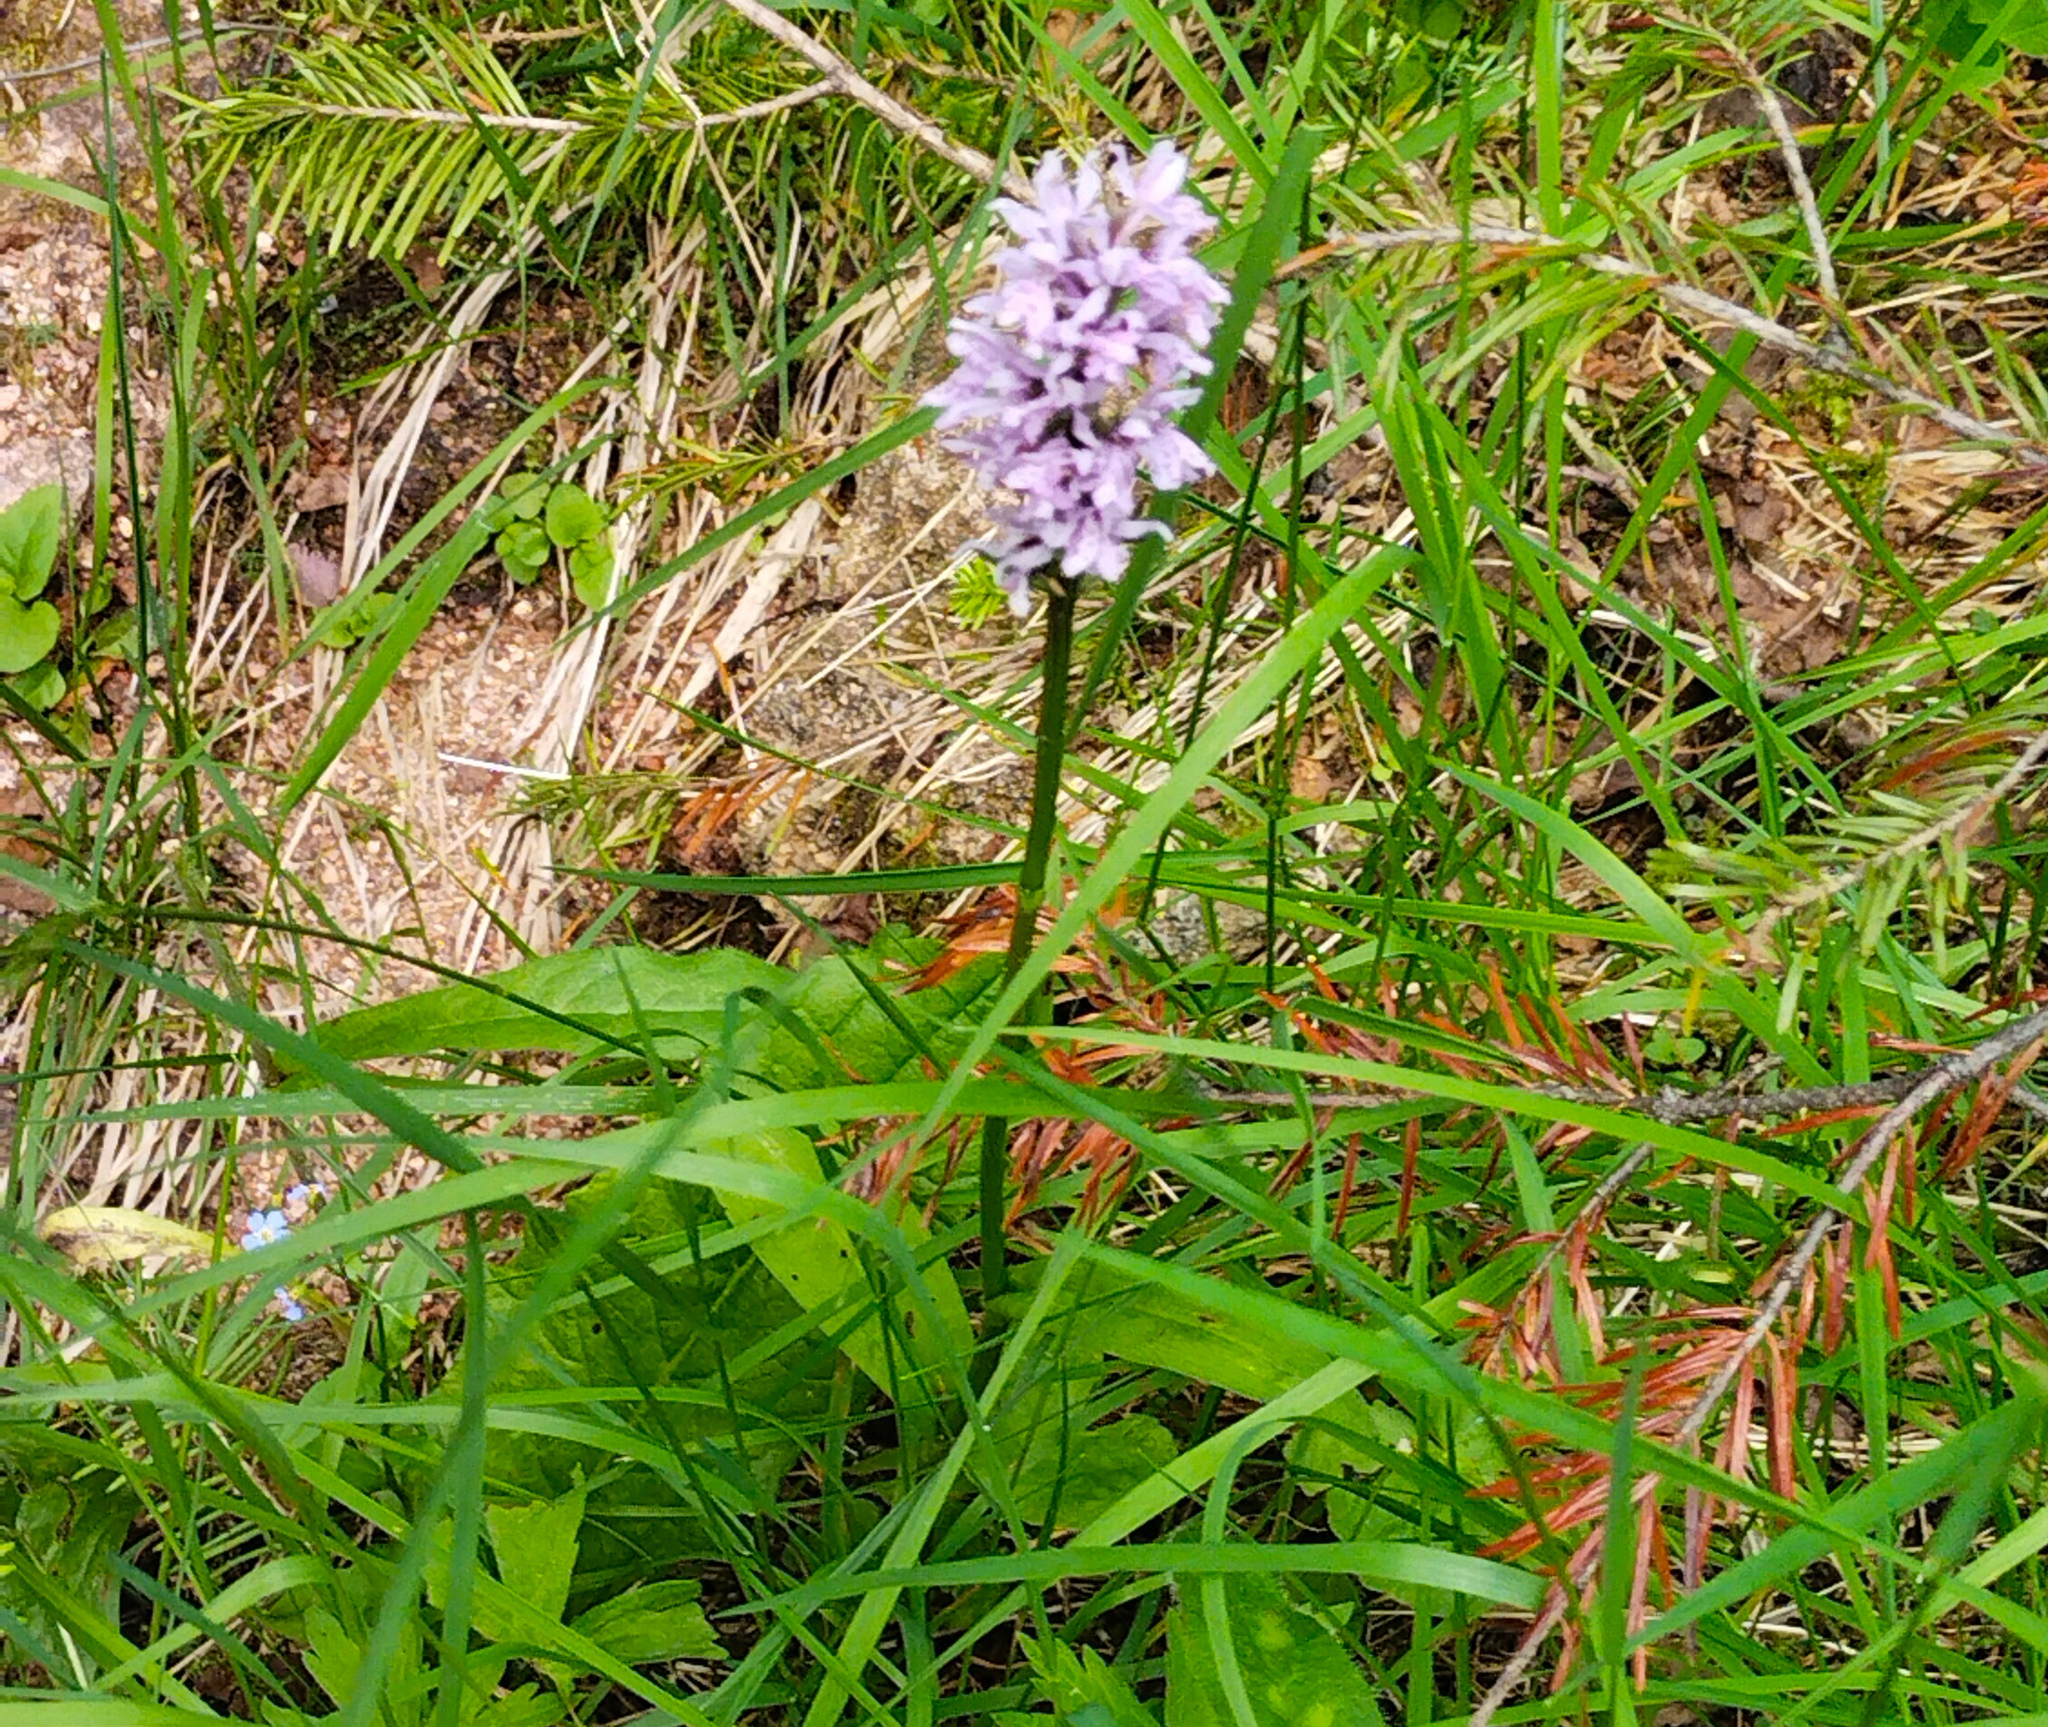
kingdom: Plantae
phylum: Tracheophyta
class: Liliopsida
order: Asparagales
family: Orchidaceae
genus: Dactylorhiza
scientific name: Dactylorhiza maculata
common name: Heath spotted-orchid
